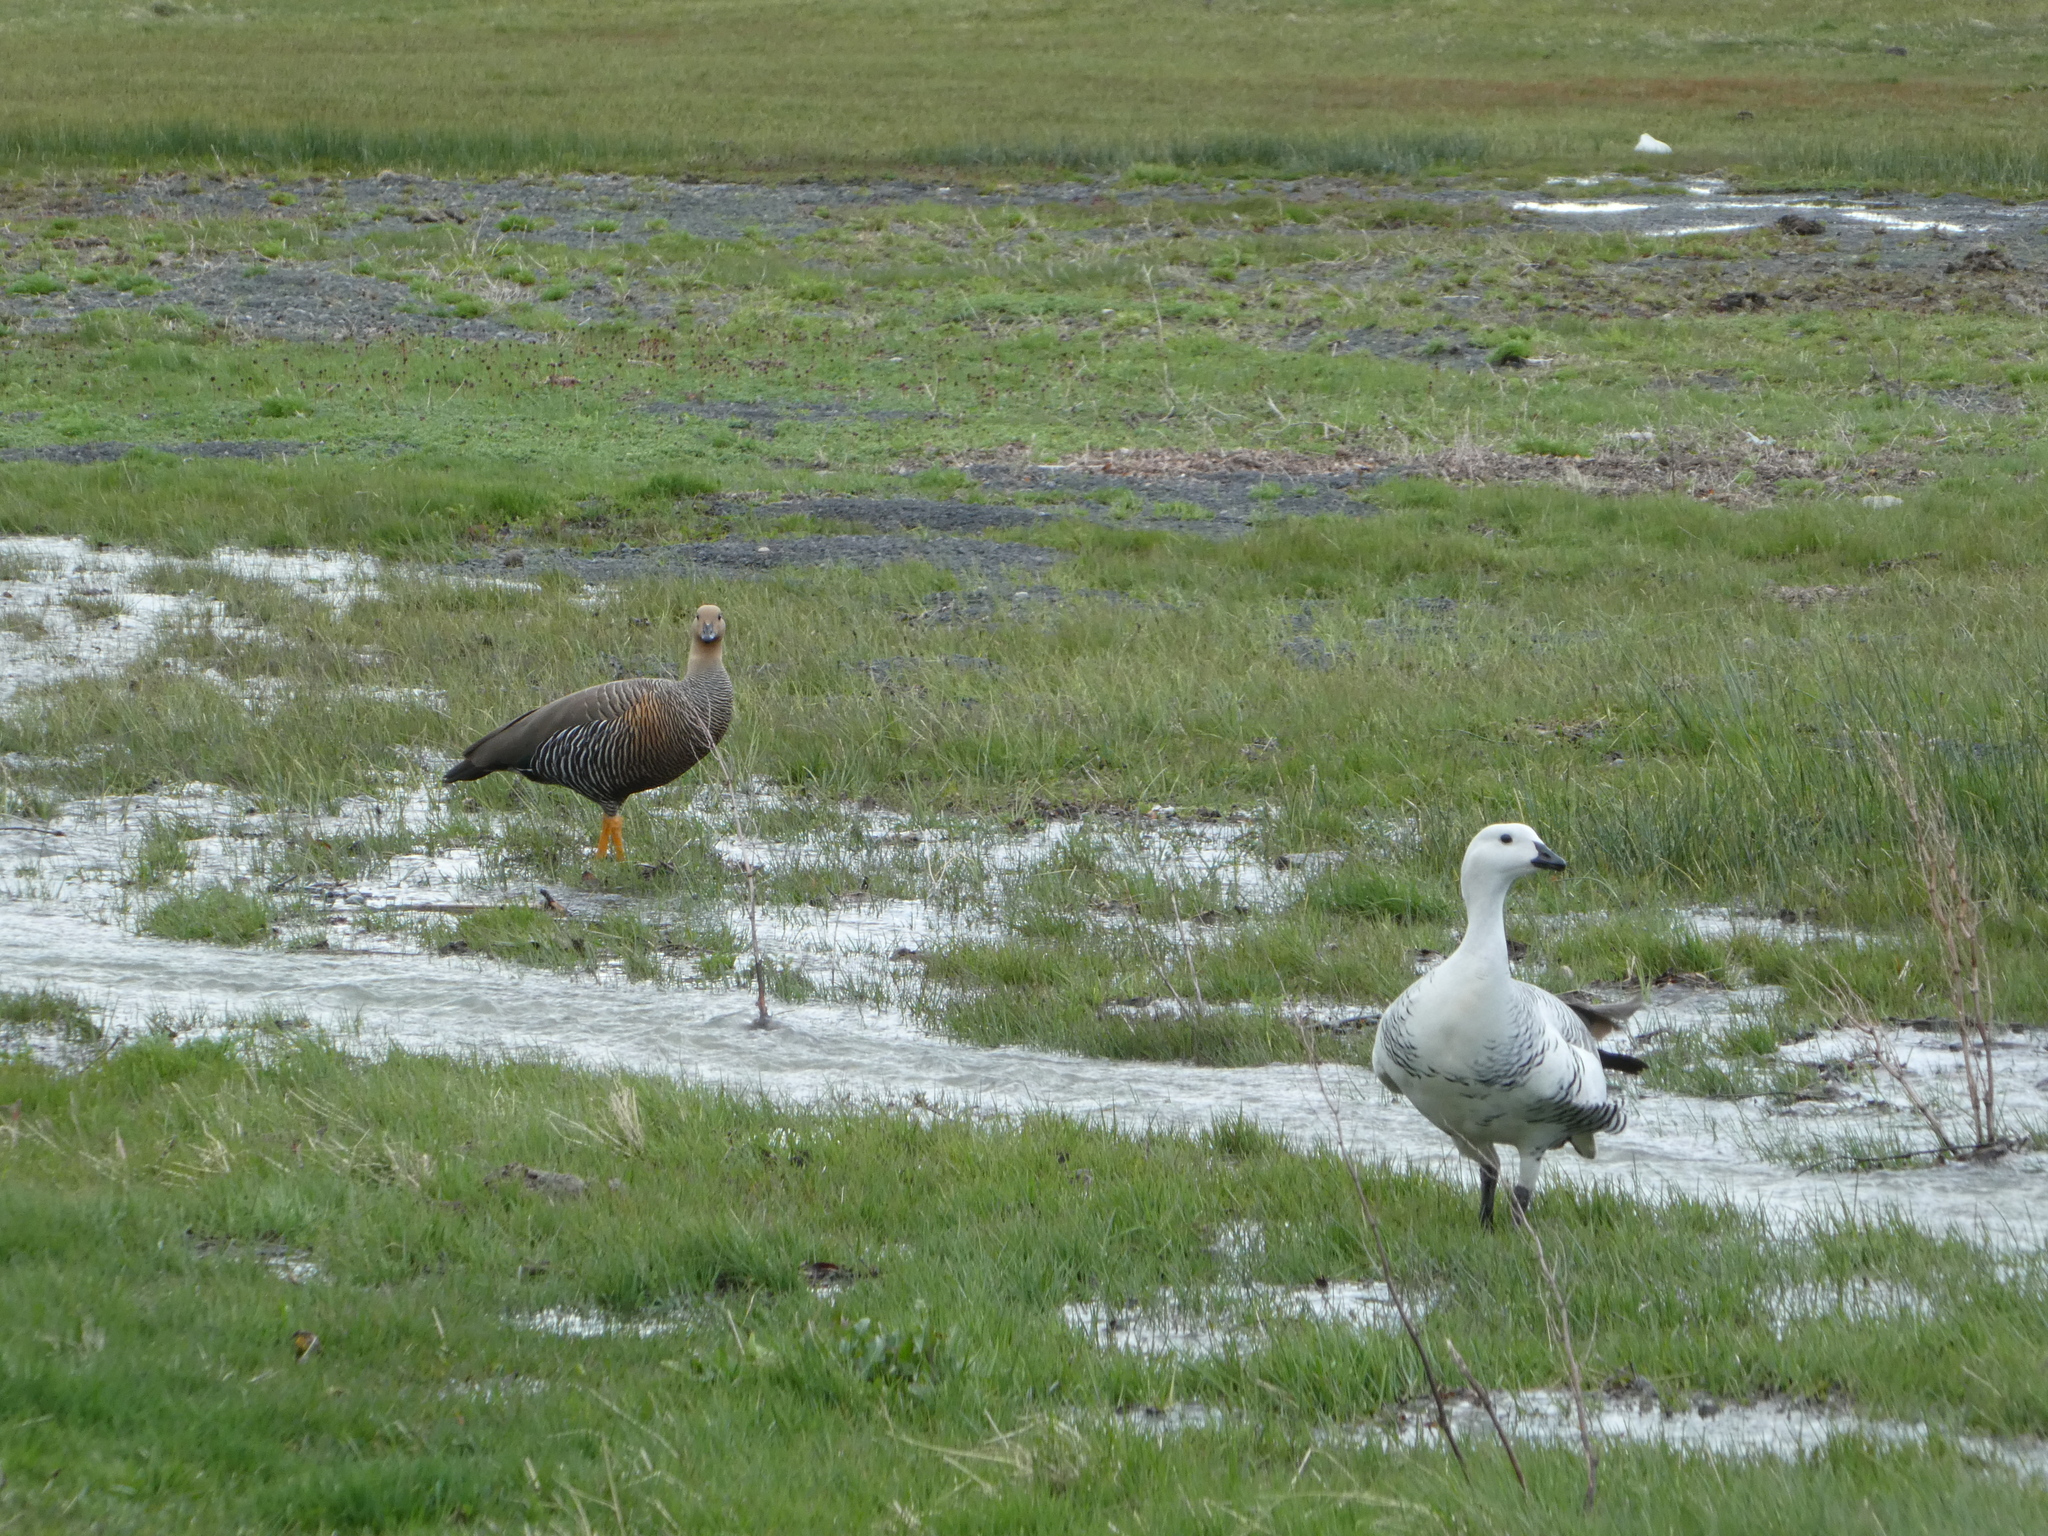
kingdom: Animalia
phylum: Chordata
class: Aves
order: Anseriformes
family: Anatidae
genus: Chloephaga
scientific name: Chloephaga picta
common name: Upland goose
